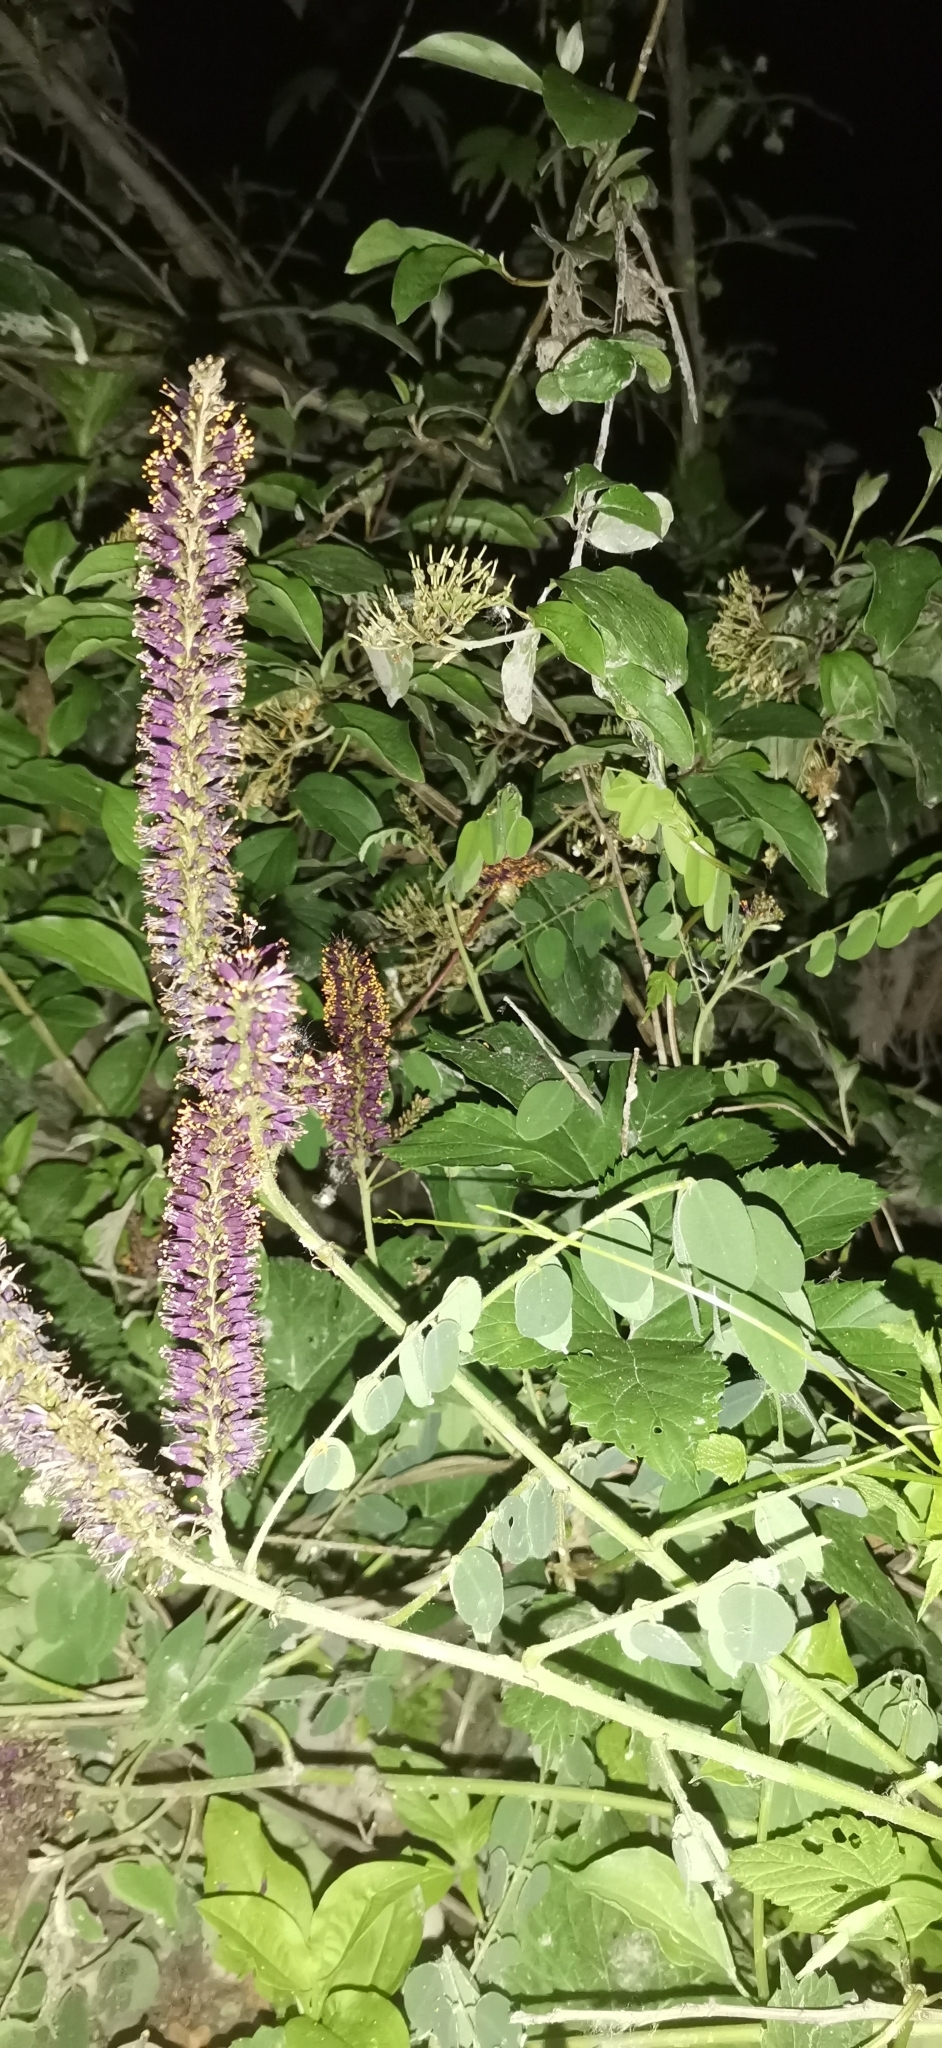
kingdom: Plantae
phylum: Tracheophyta
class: Magnoliopsida
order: Fabales
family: Fabaceae
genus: Amorpha
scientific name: Amorpha fruticosa
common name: False indigo
